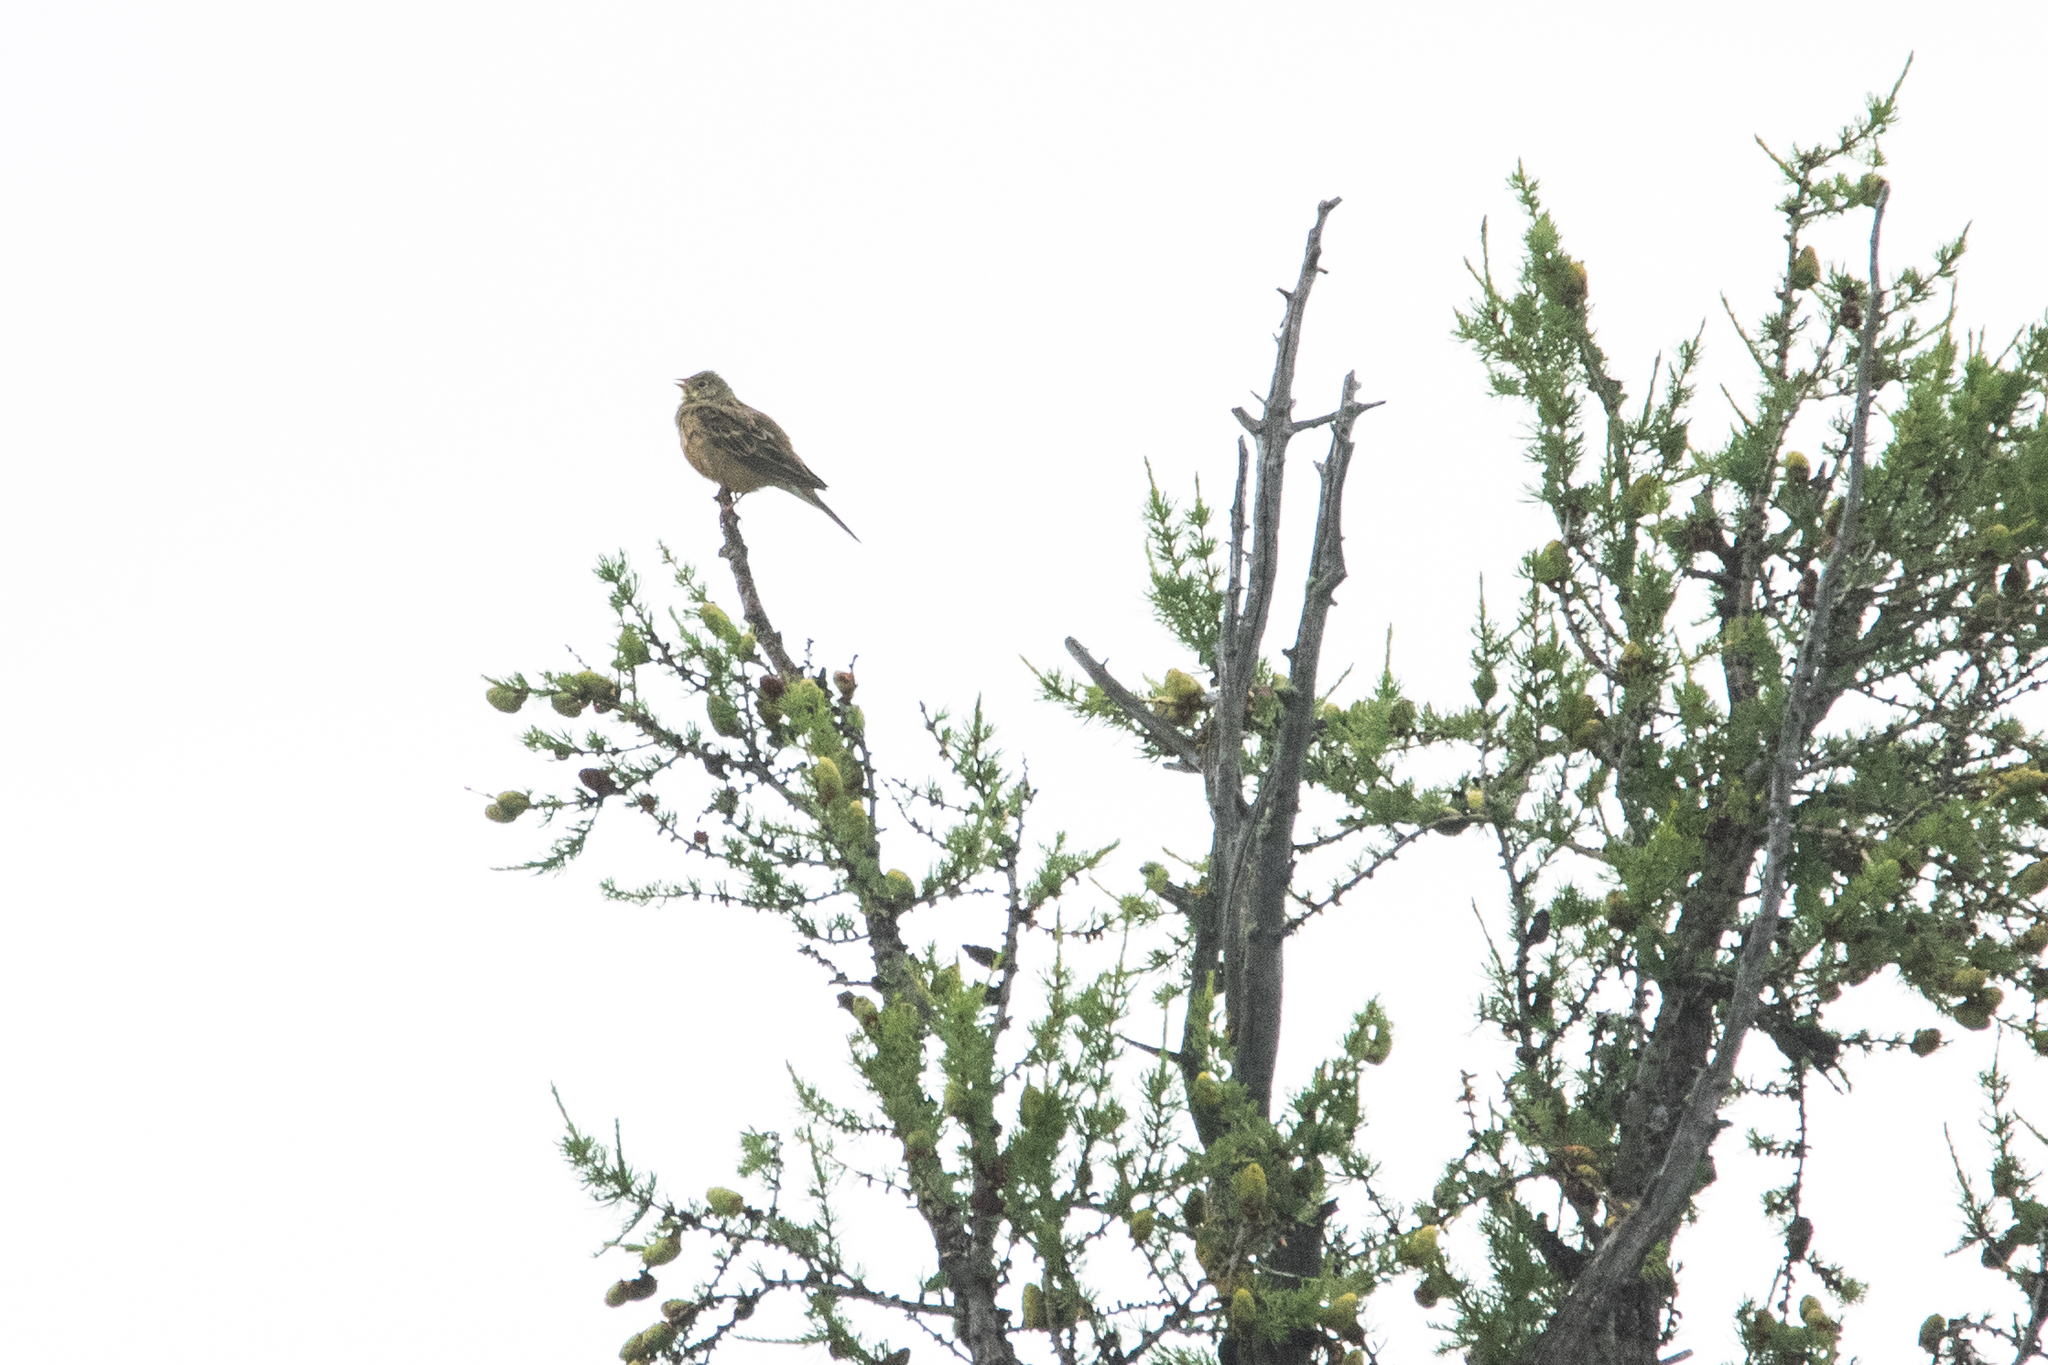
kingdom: Animalia
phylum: Chordata
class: Aves
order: Passeriformes
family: Emberizidae
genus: Emberiza
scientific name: Emberiza hortulana
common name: Ortolan bunting
